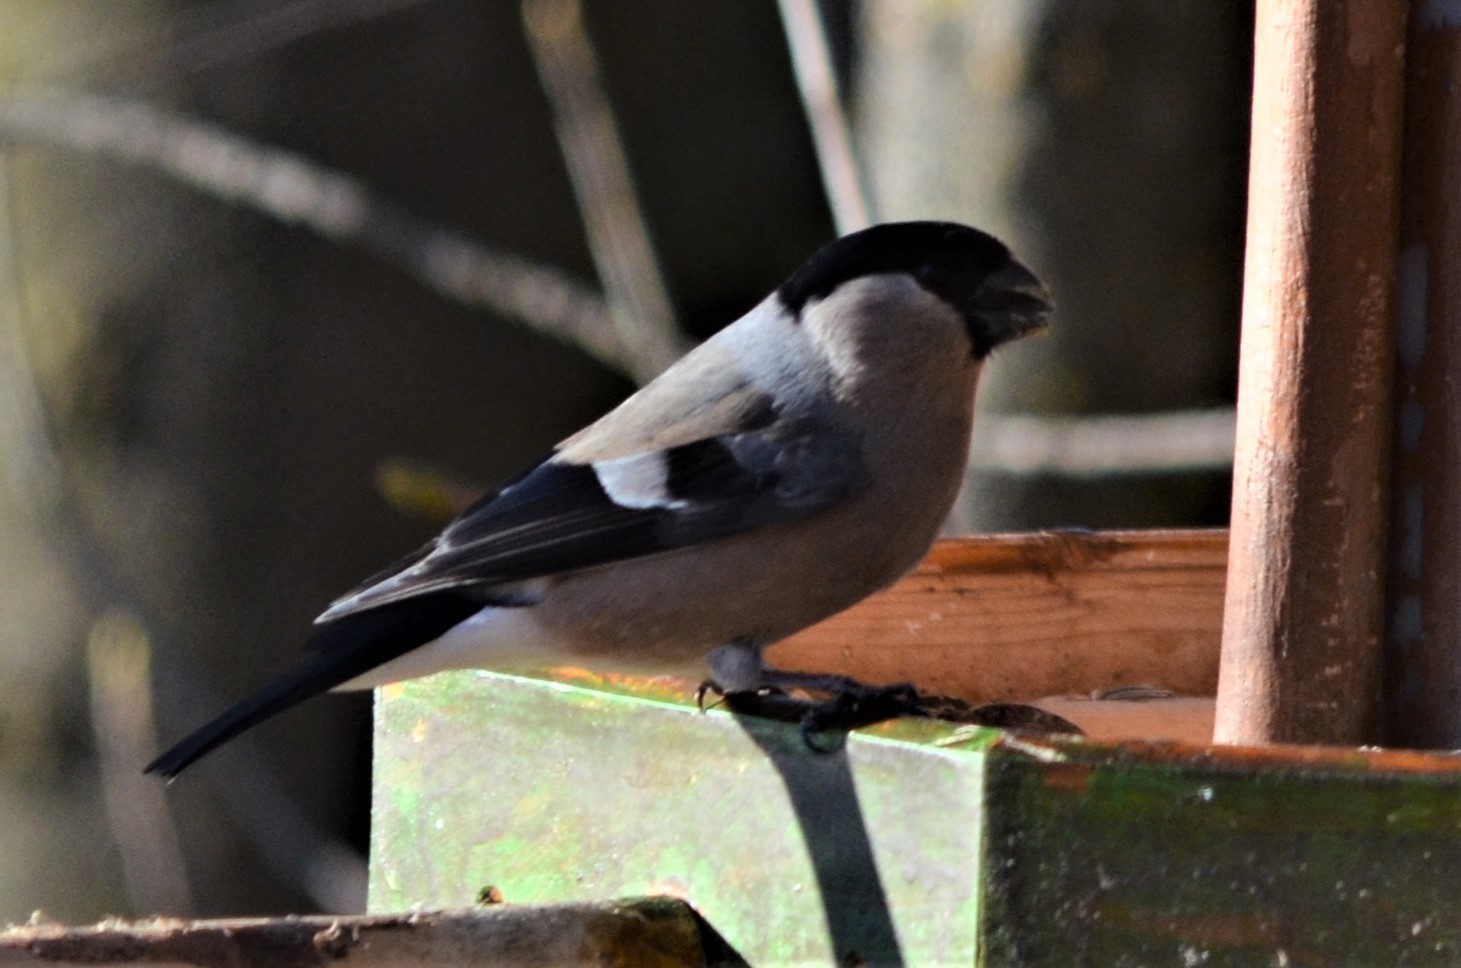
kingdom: Animalia
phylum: Chordata
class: Aves
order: Passeriformes
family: Fringillidae
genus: Pyrrhula
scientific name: Pyrrhula pyrrhula
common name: Eurasian bullfinch
